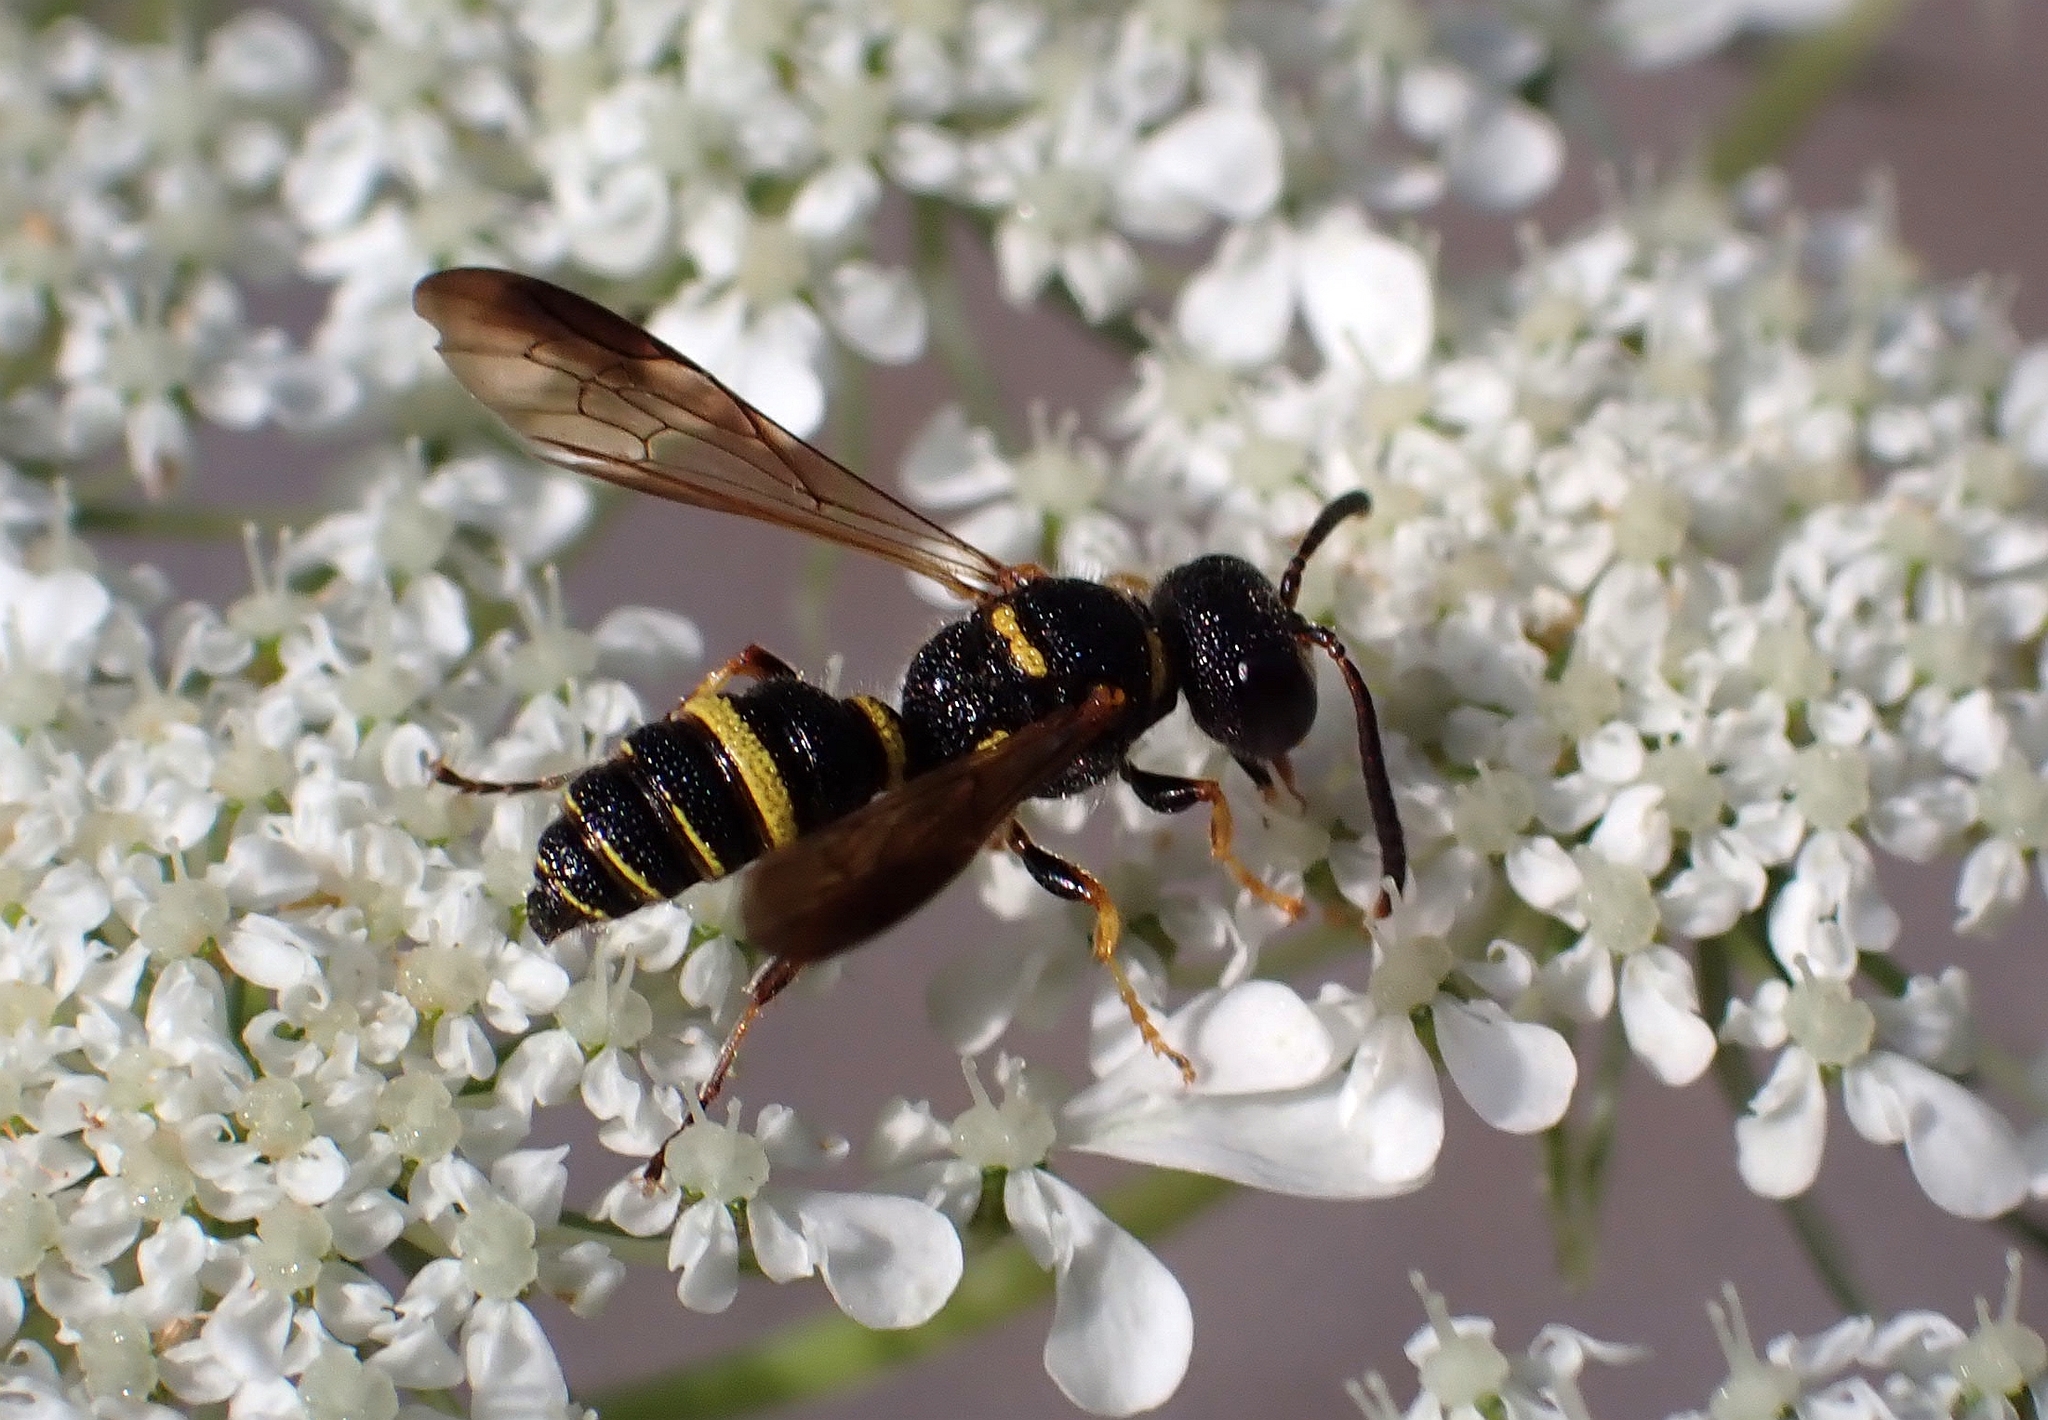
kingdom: Animalia
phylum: Arthropoda
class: Insecta
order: Hymenoptera
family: Crabronidae
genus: Cerceris
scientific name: Cerceris insolita
